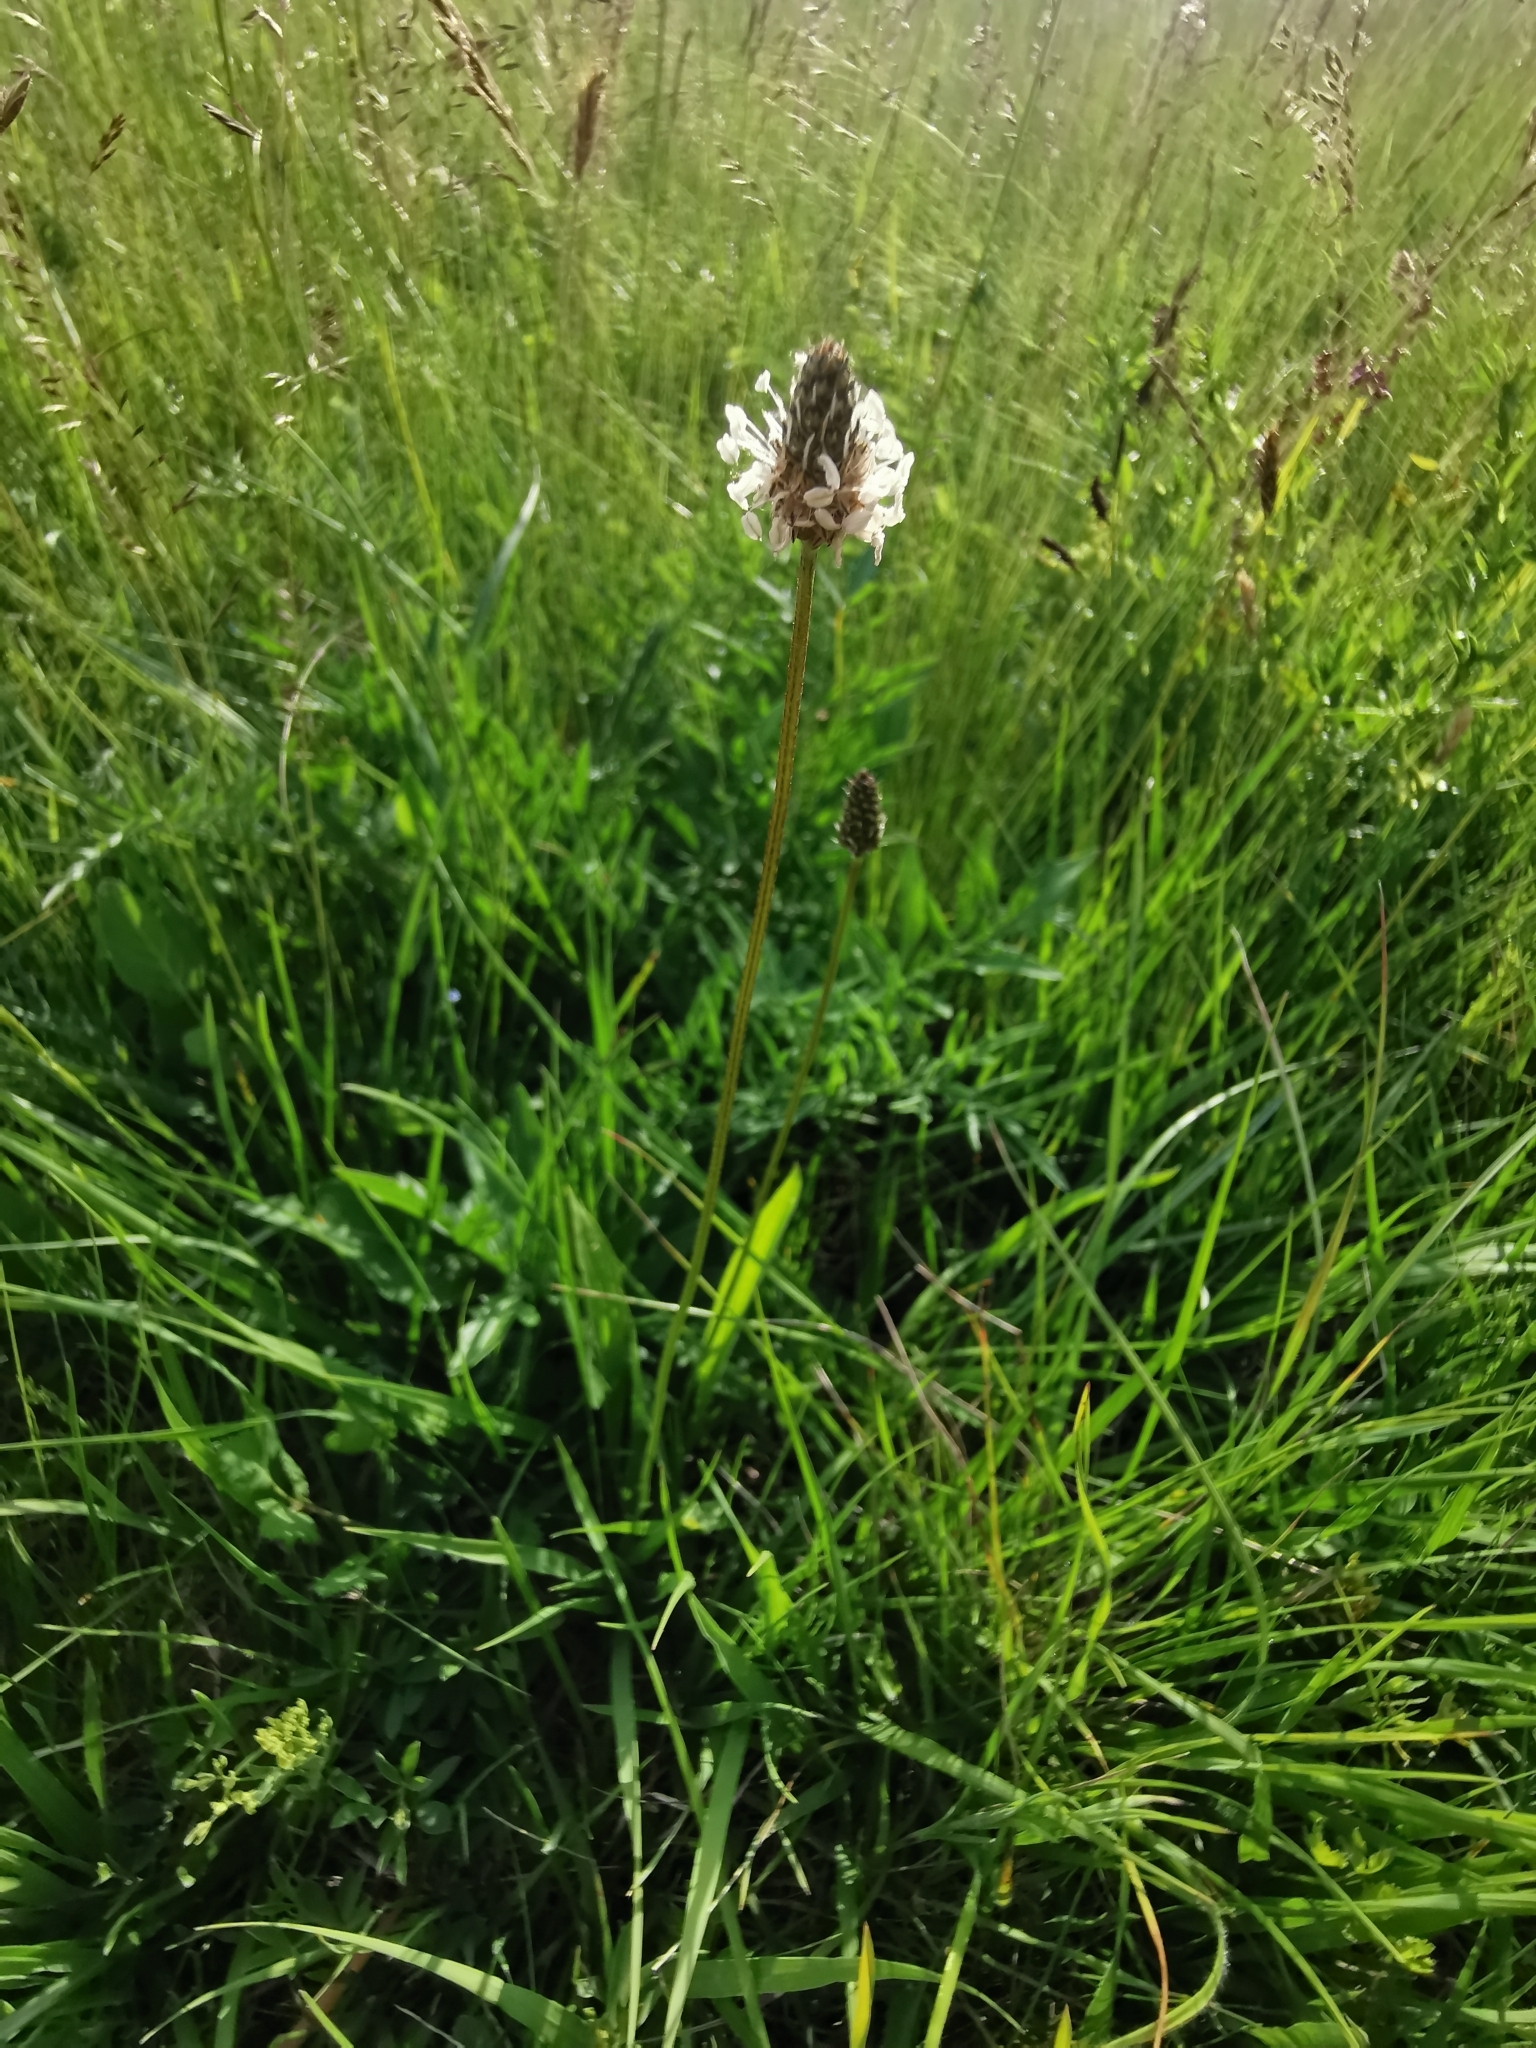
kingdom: Plantae
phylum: Tracheophyta
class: Magnoliopsida
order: Lamiales
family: Plantaginaceae
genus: Plantago
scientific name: Plantago lanceolata
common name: Ribwort plantain
